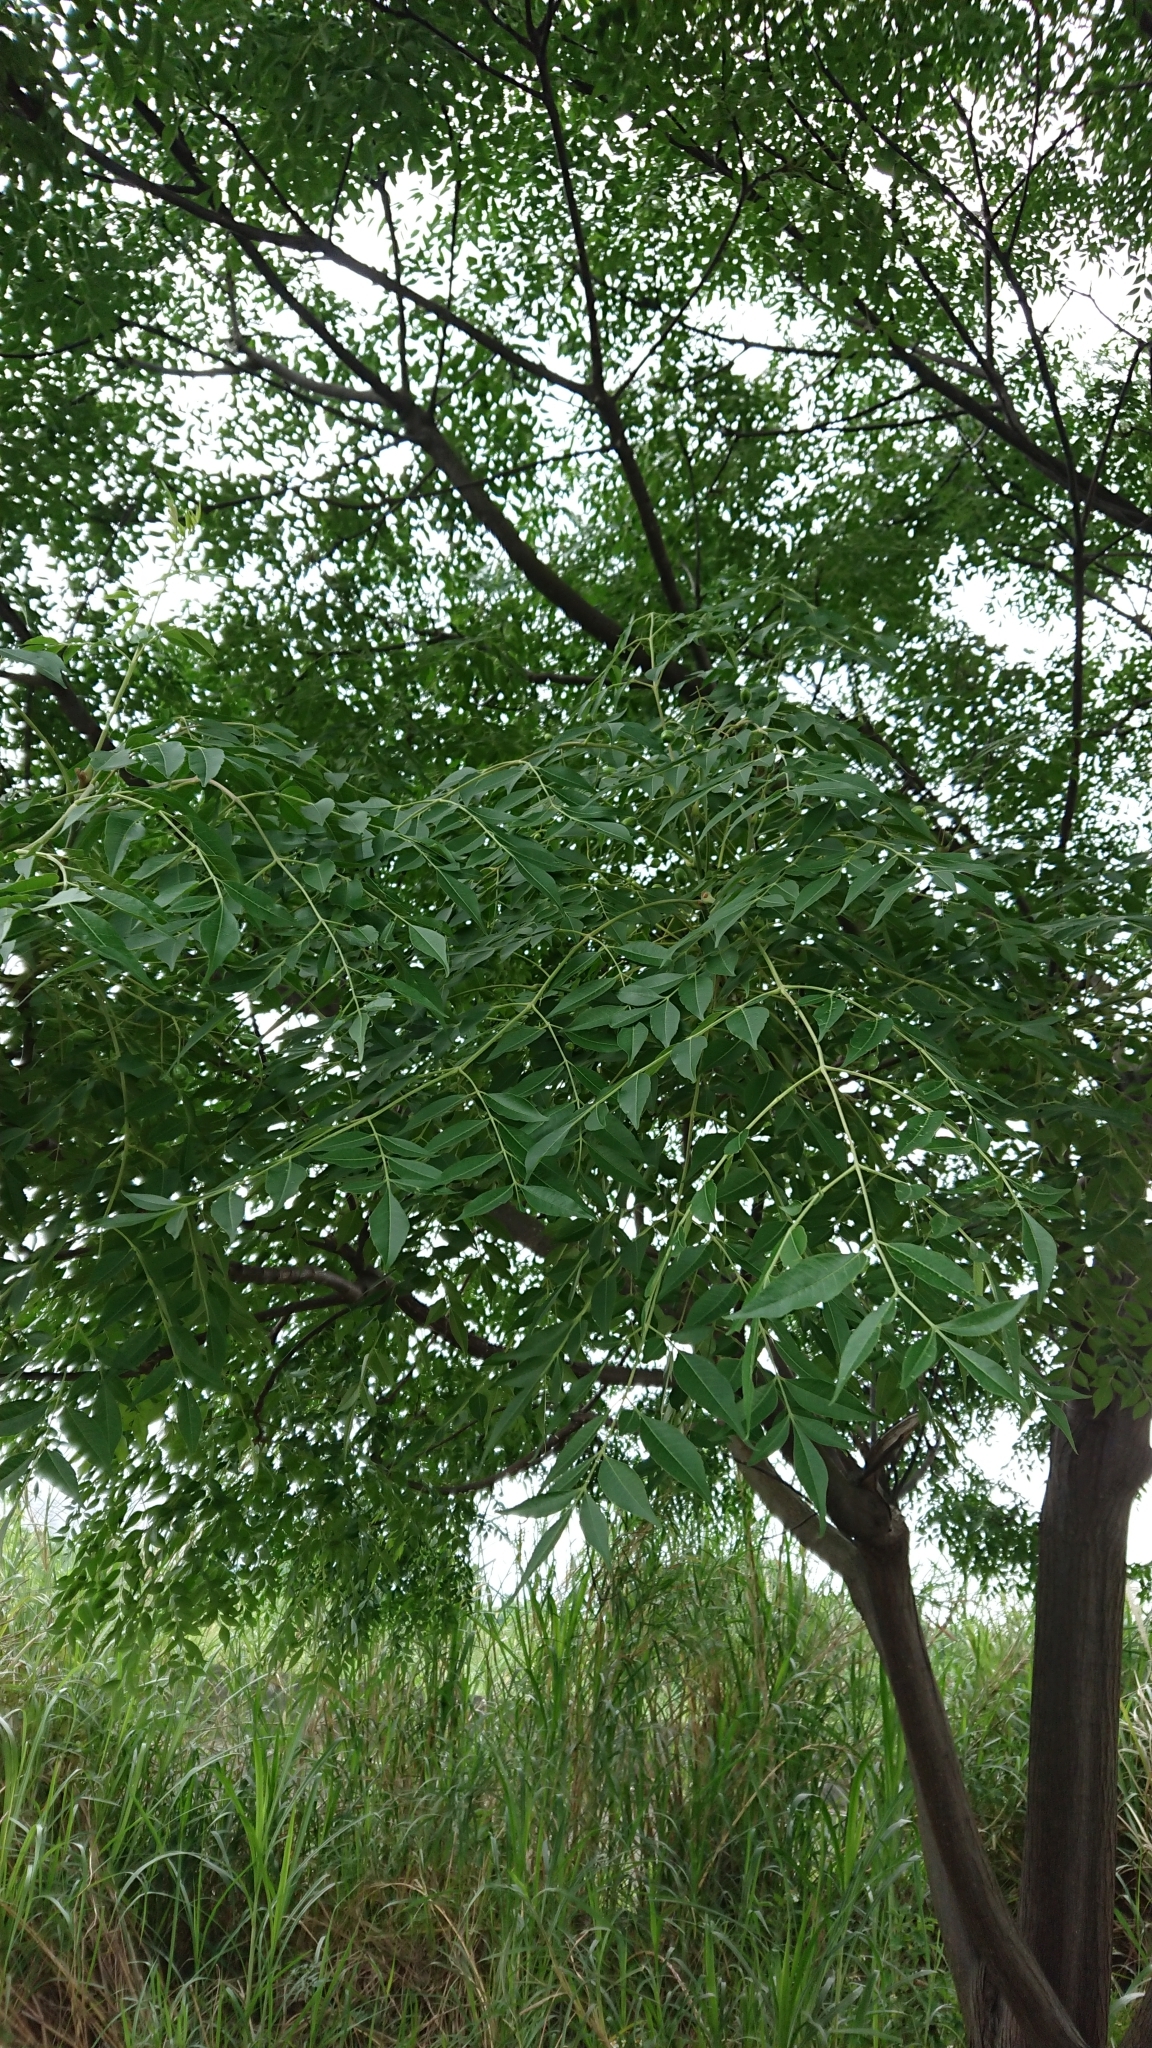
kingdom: Plantae
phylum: Tracheophyta
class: Magnoliopsida
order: Sapindales
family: Meliaceae
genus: Melia
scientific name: Melia azedarach
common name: Chinaberrytree
